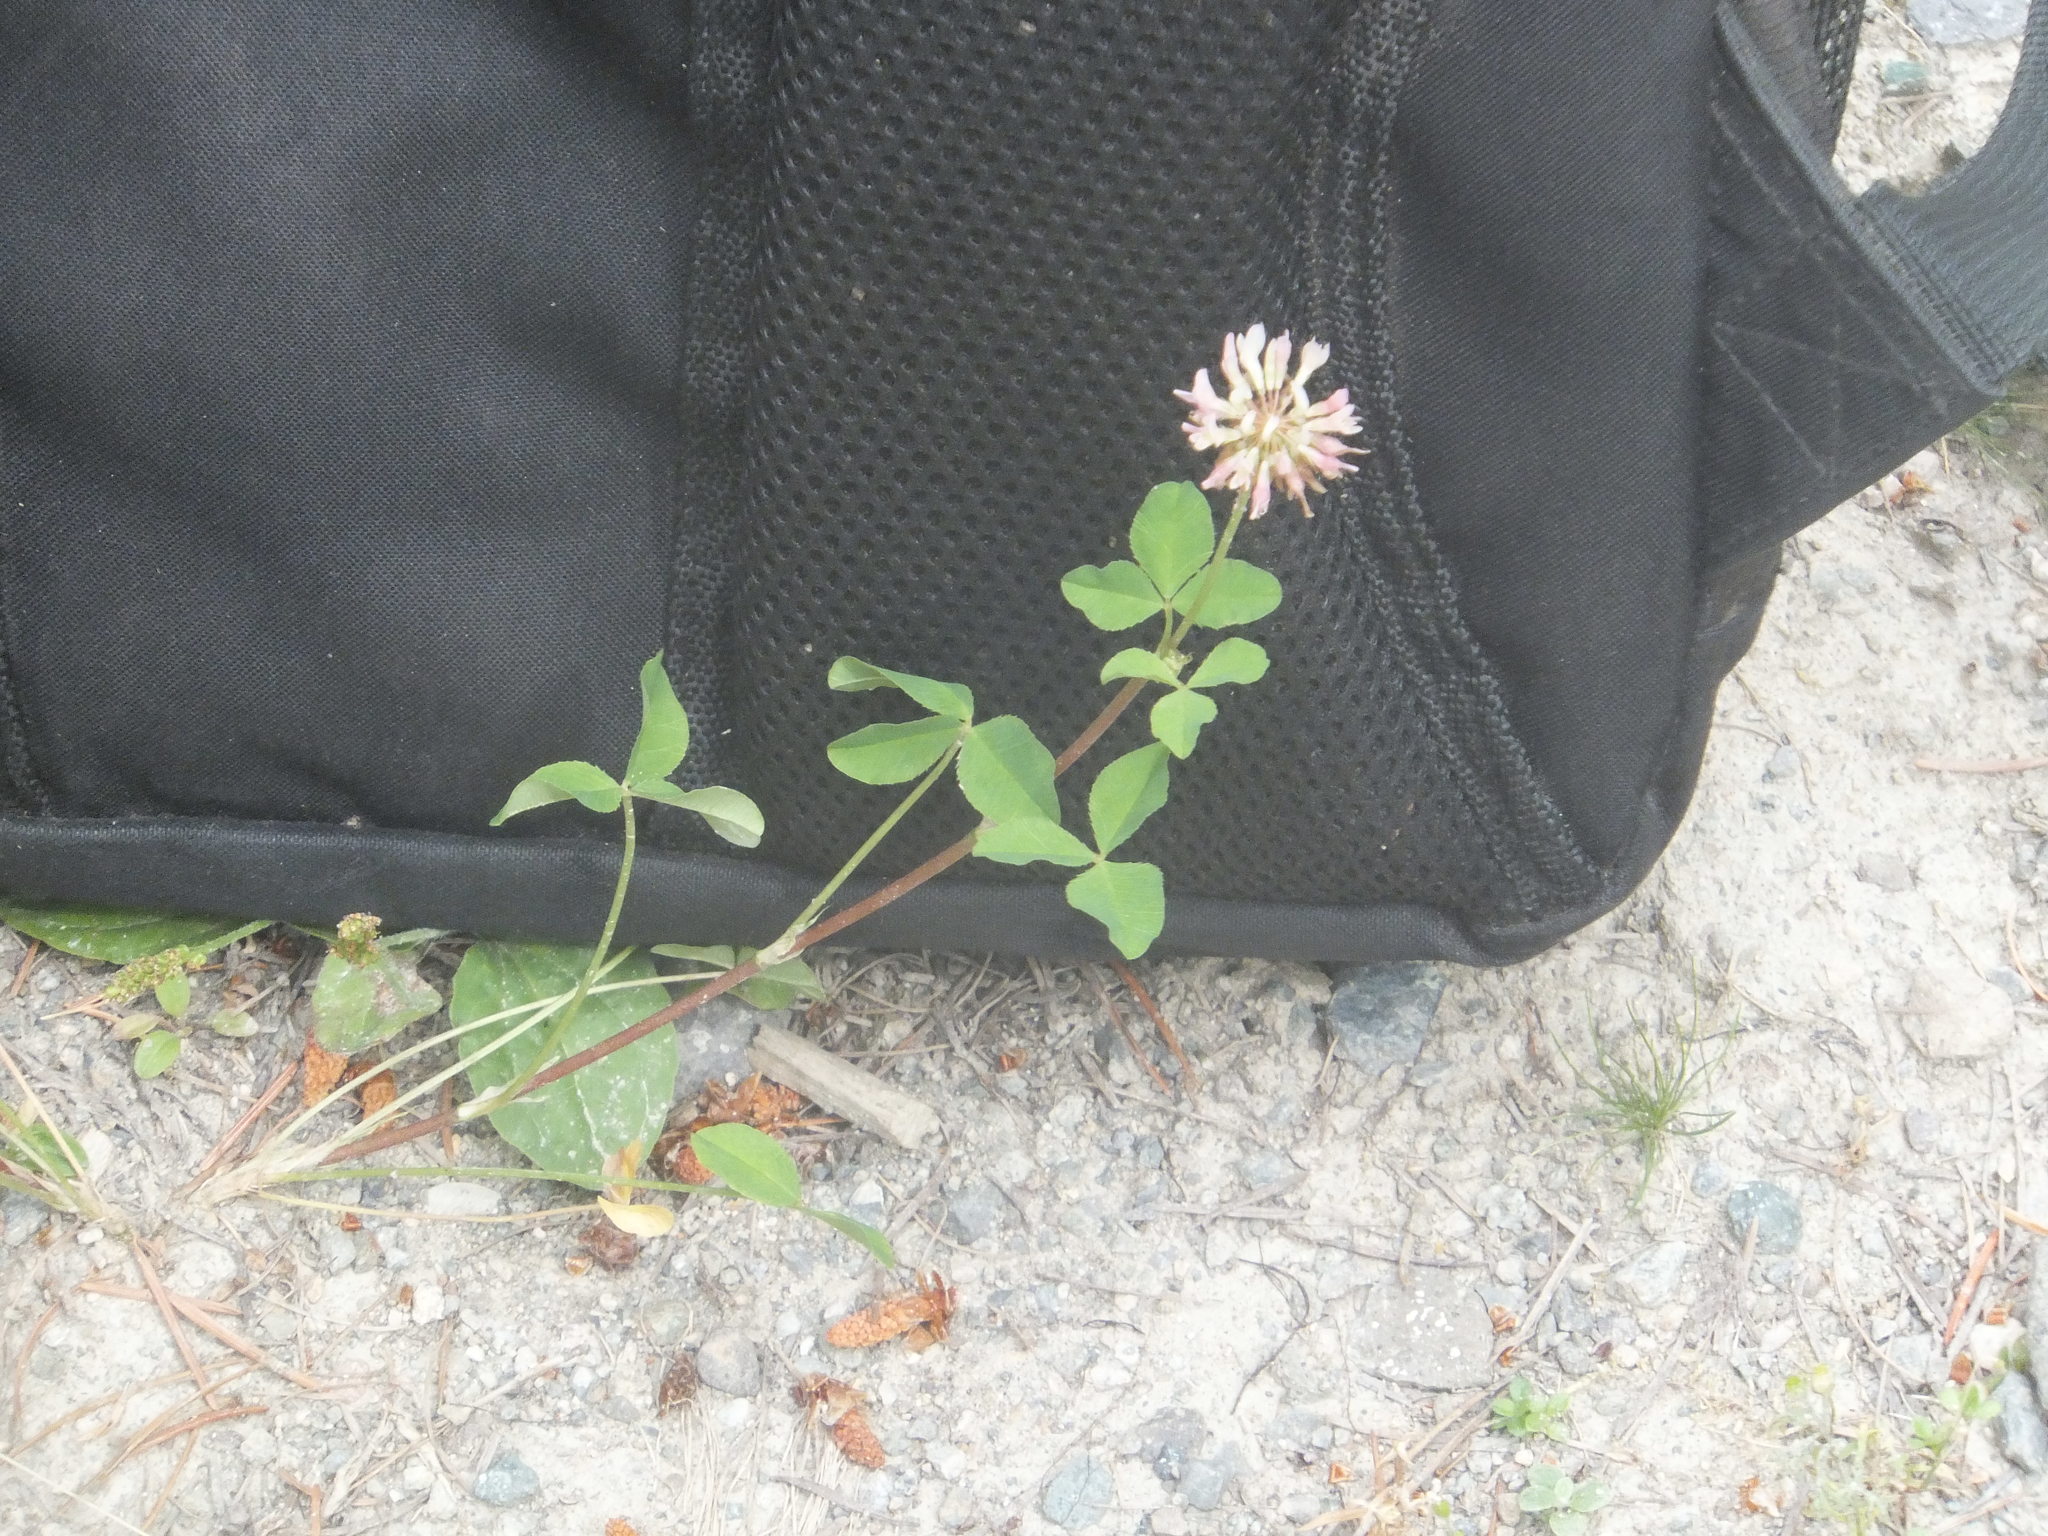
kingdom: Plantae
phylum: Tracheophyta
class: Magnoliopsida
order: Fabales
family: Fabaceae
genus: Trifolium
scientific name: Trifolium hybridum
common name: Alsike clover
